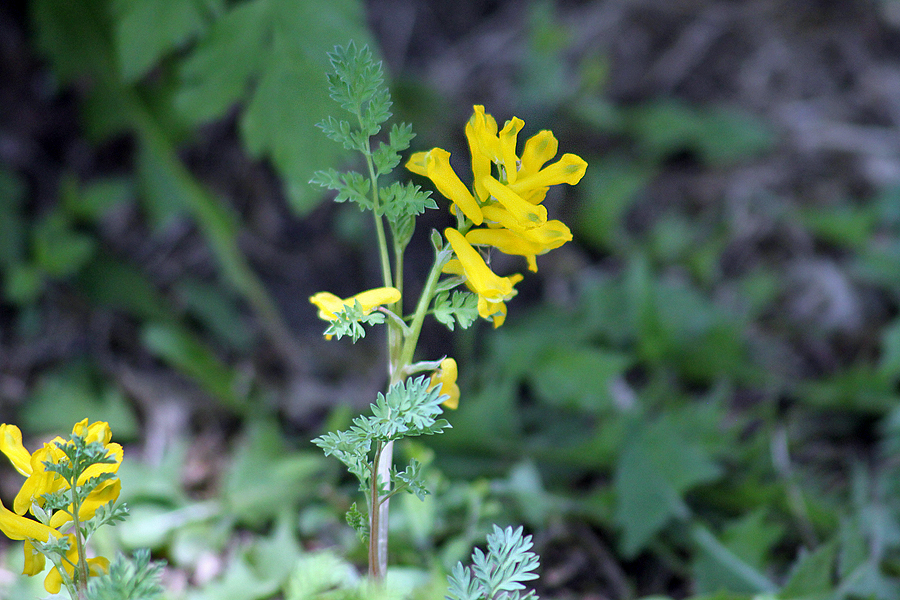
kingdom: Plantae
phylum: Tracheophyta
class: Magnoliopsida
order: Ranunculales
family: Papaveraceae
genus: Corydalis
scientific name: Corydalis aurea
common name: Golden corydalis
